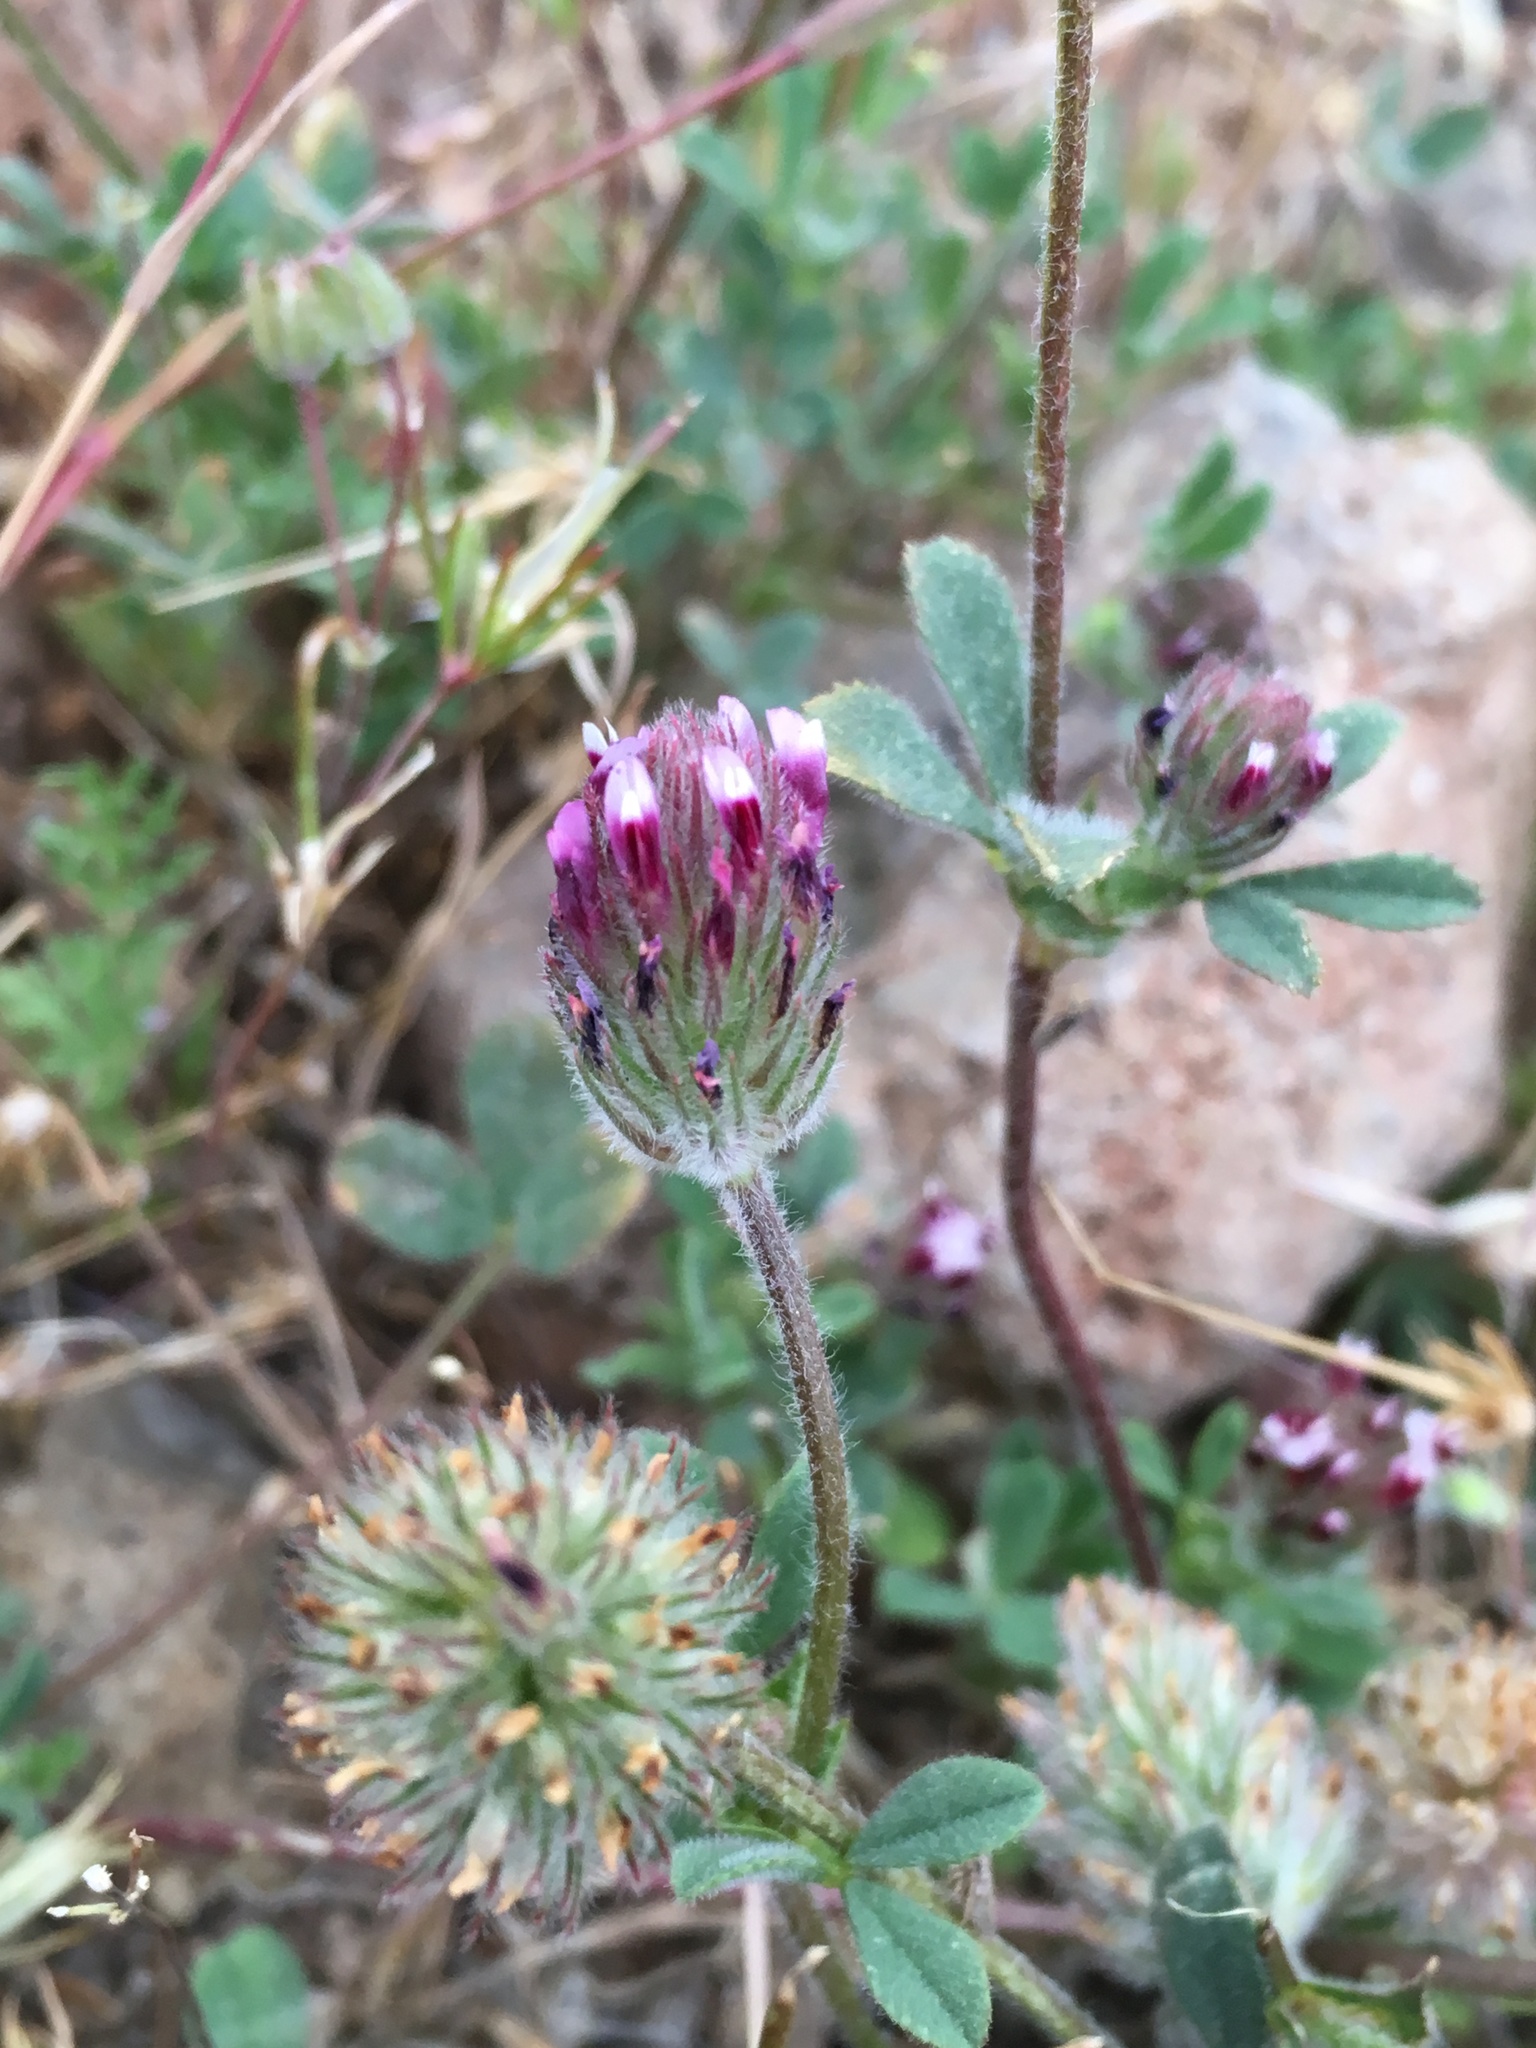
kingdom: Plantae
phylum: Tracheophyta
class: Magnoliopsida
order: Fabales
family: Fabaceae
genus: Trifolium
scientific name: Trifolium dichotomum
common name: Branched indian clover
